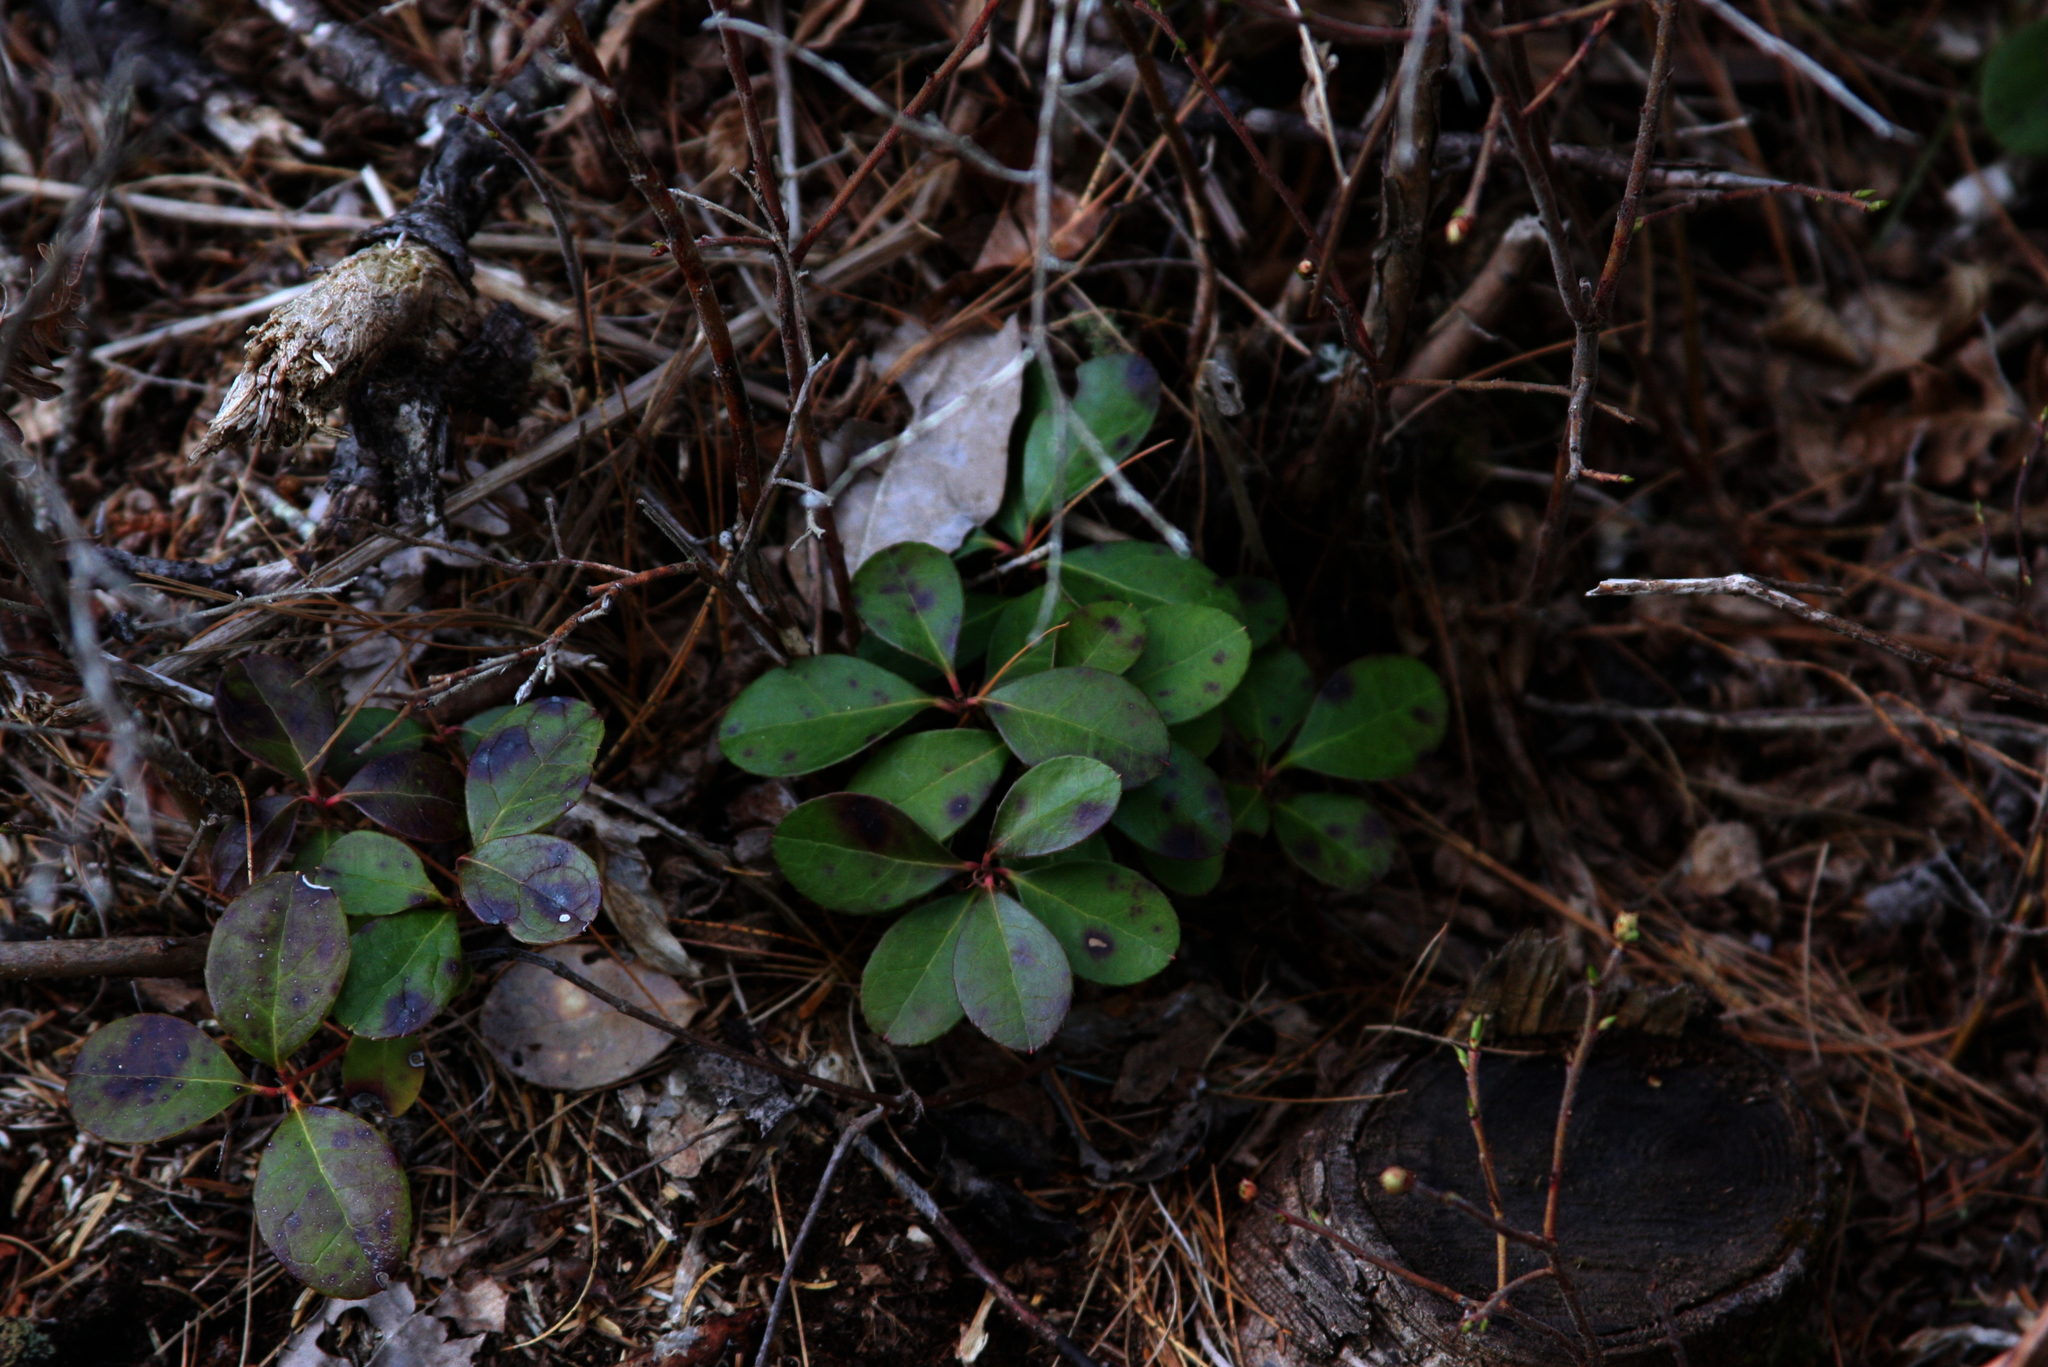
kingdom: Plantae
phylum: Tracheophyta
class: Magnoliopsida
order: Ericales
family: Ericaceae
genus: Gaultheria
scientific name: Gaultheria procumbens
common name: Checkerberry
